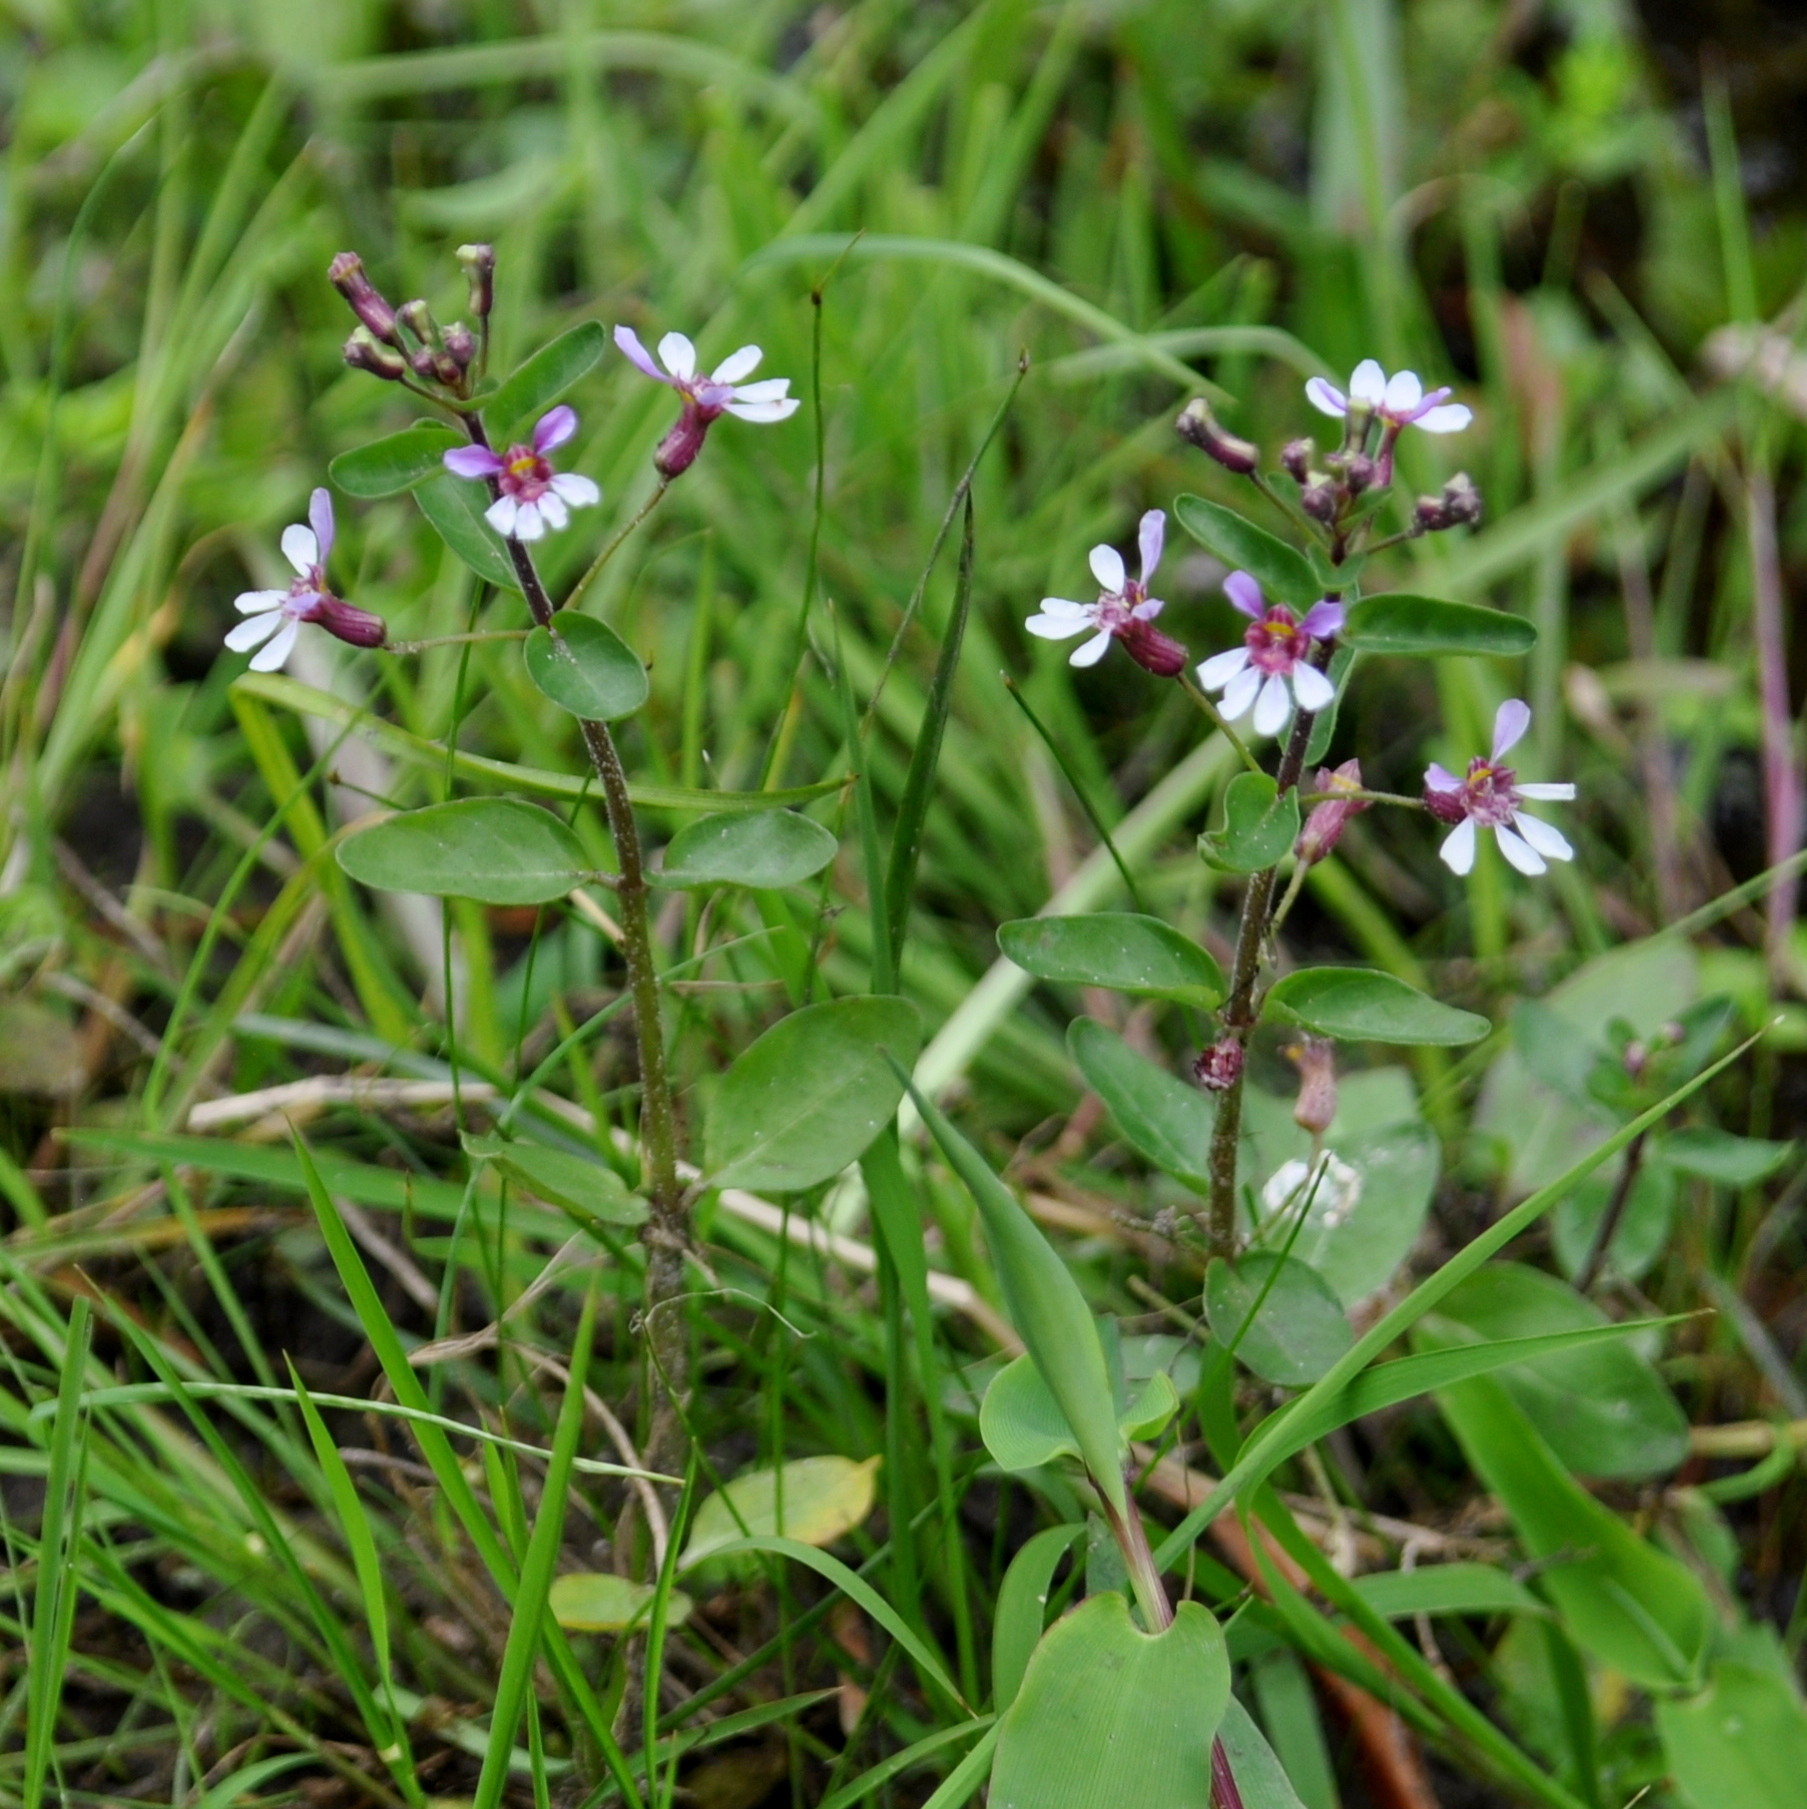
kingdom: Plantae
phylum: Tracheophyta
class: Magnoliopsida
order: Myrtales
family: Lythraceae
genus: Cuphea
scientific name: Cuphea lindmaniana
